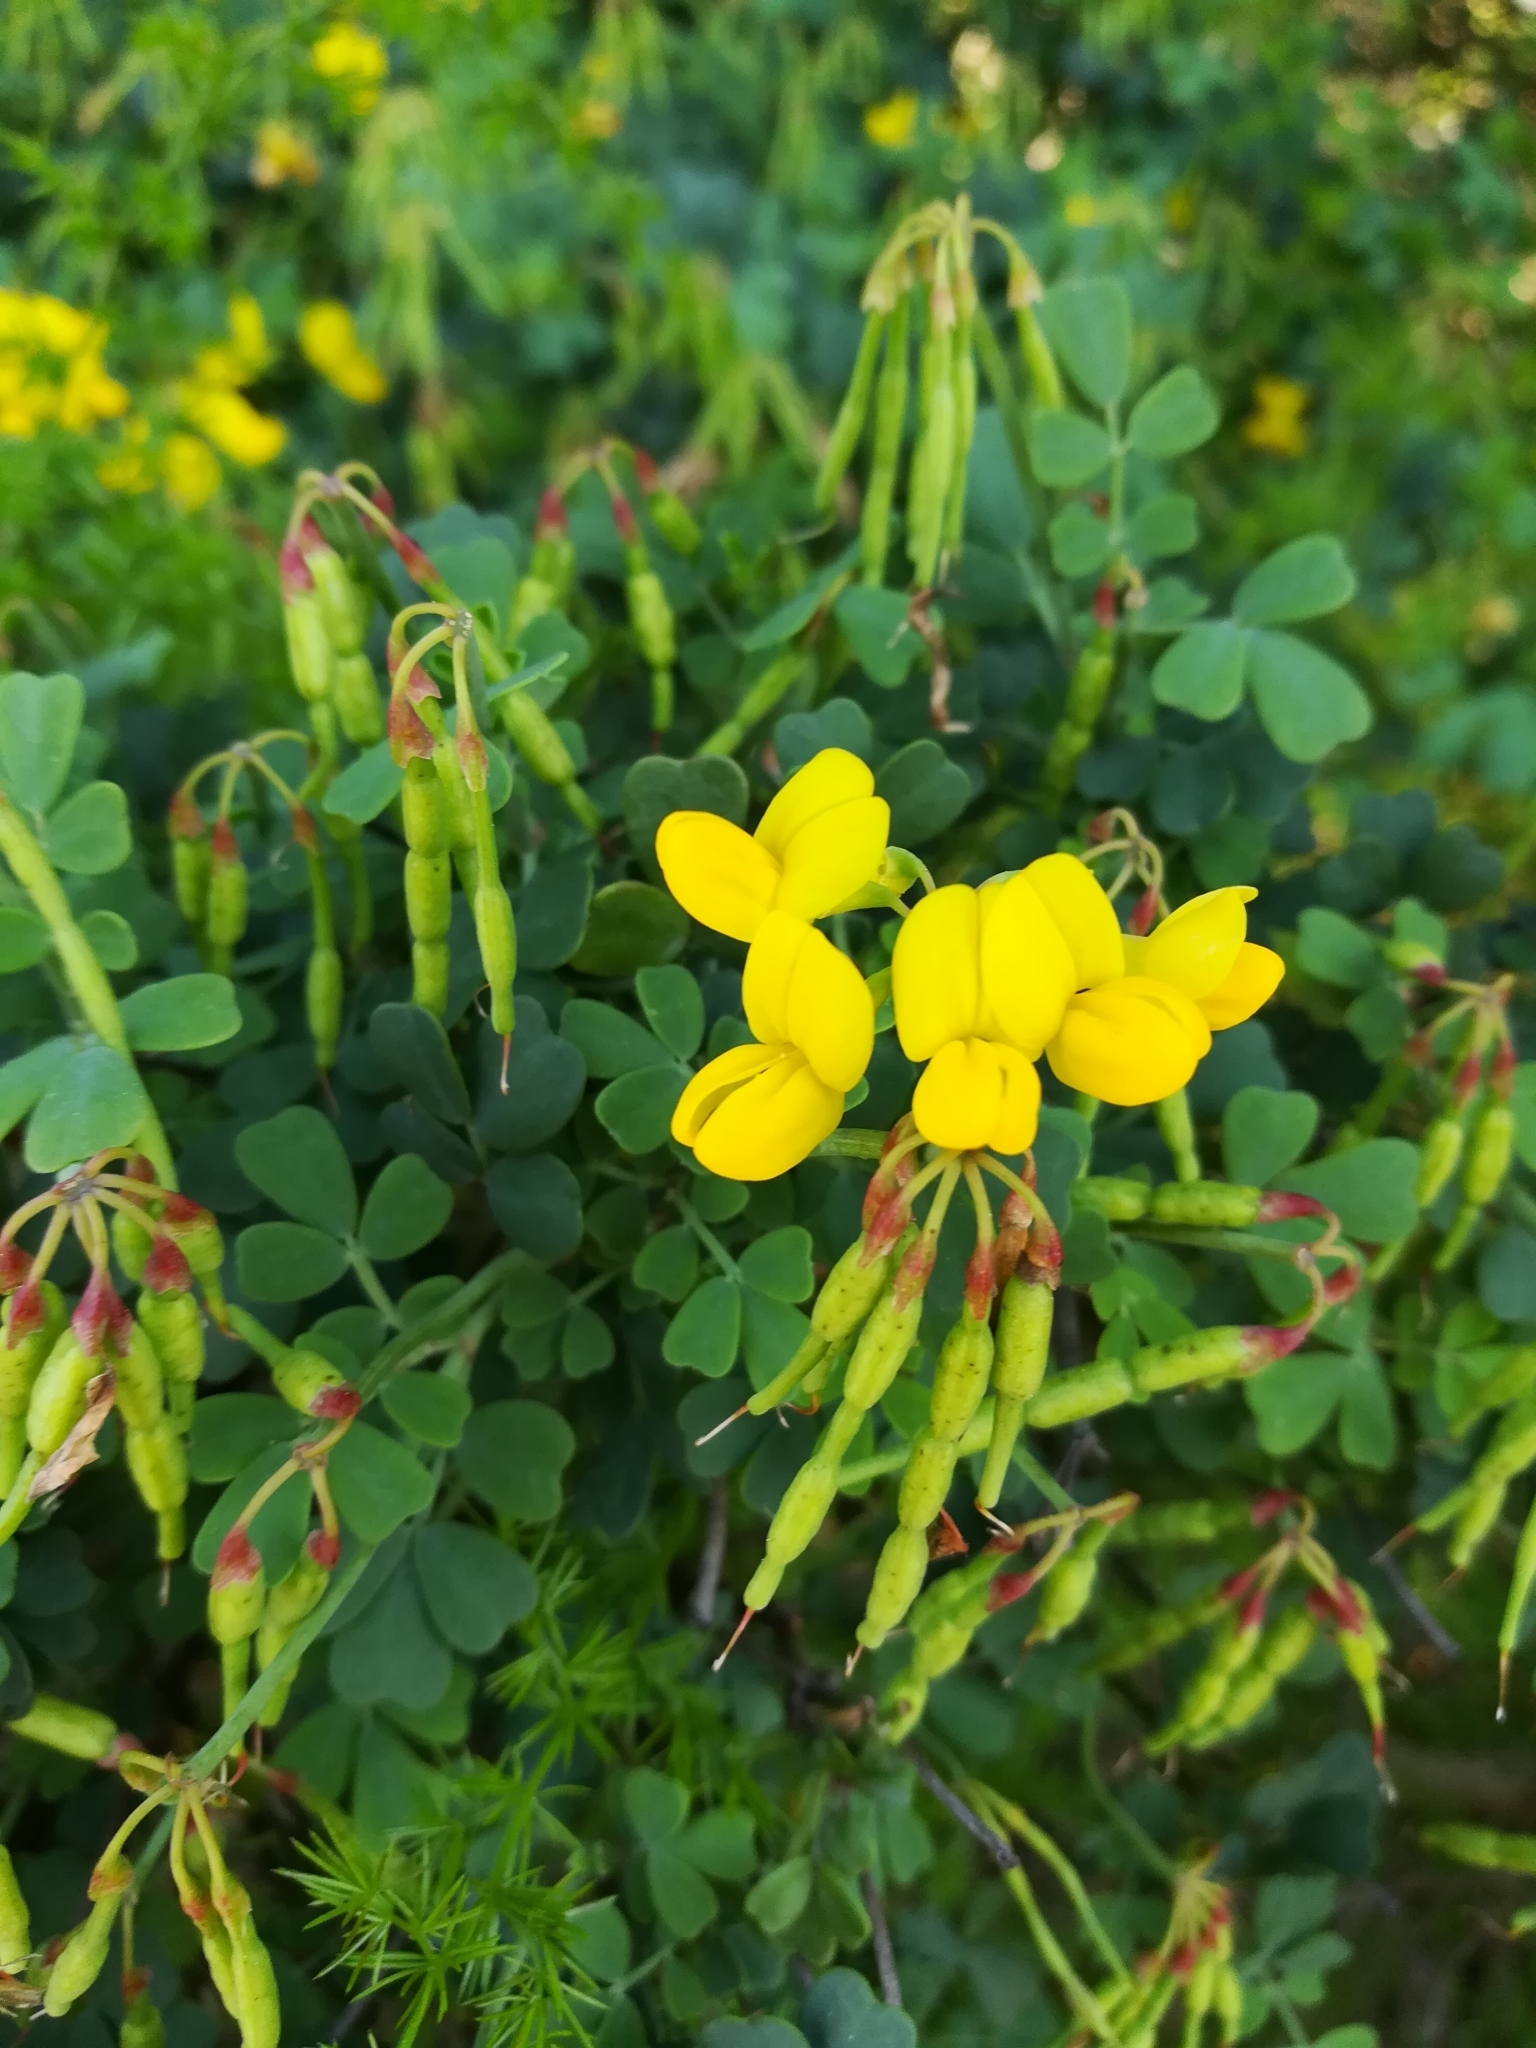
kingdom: Plantae
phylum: Tracheophyta
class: Magnoliopsida
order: Fabales
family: Fabaceae
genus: Coronilla
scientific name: Coronilla valentina
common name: Shrubby scorpion-vetch
